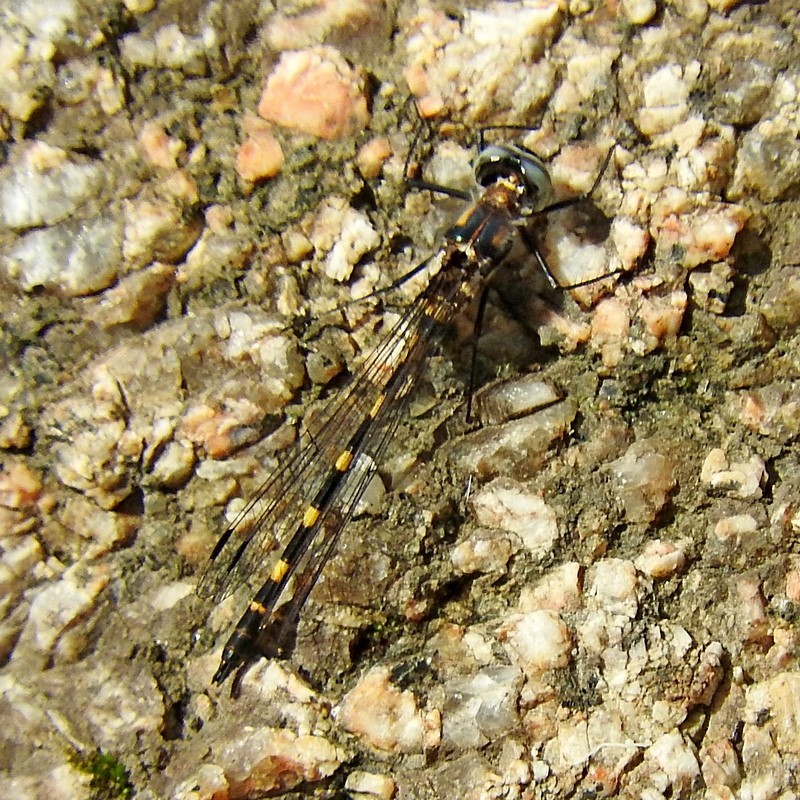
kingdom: Animalia
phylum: Arthropoda
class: Insecta
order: Odonata
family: Corduliidae
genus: Cordulephya
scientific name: Cordulephya pygmaea
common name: Common shutwing
